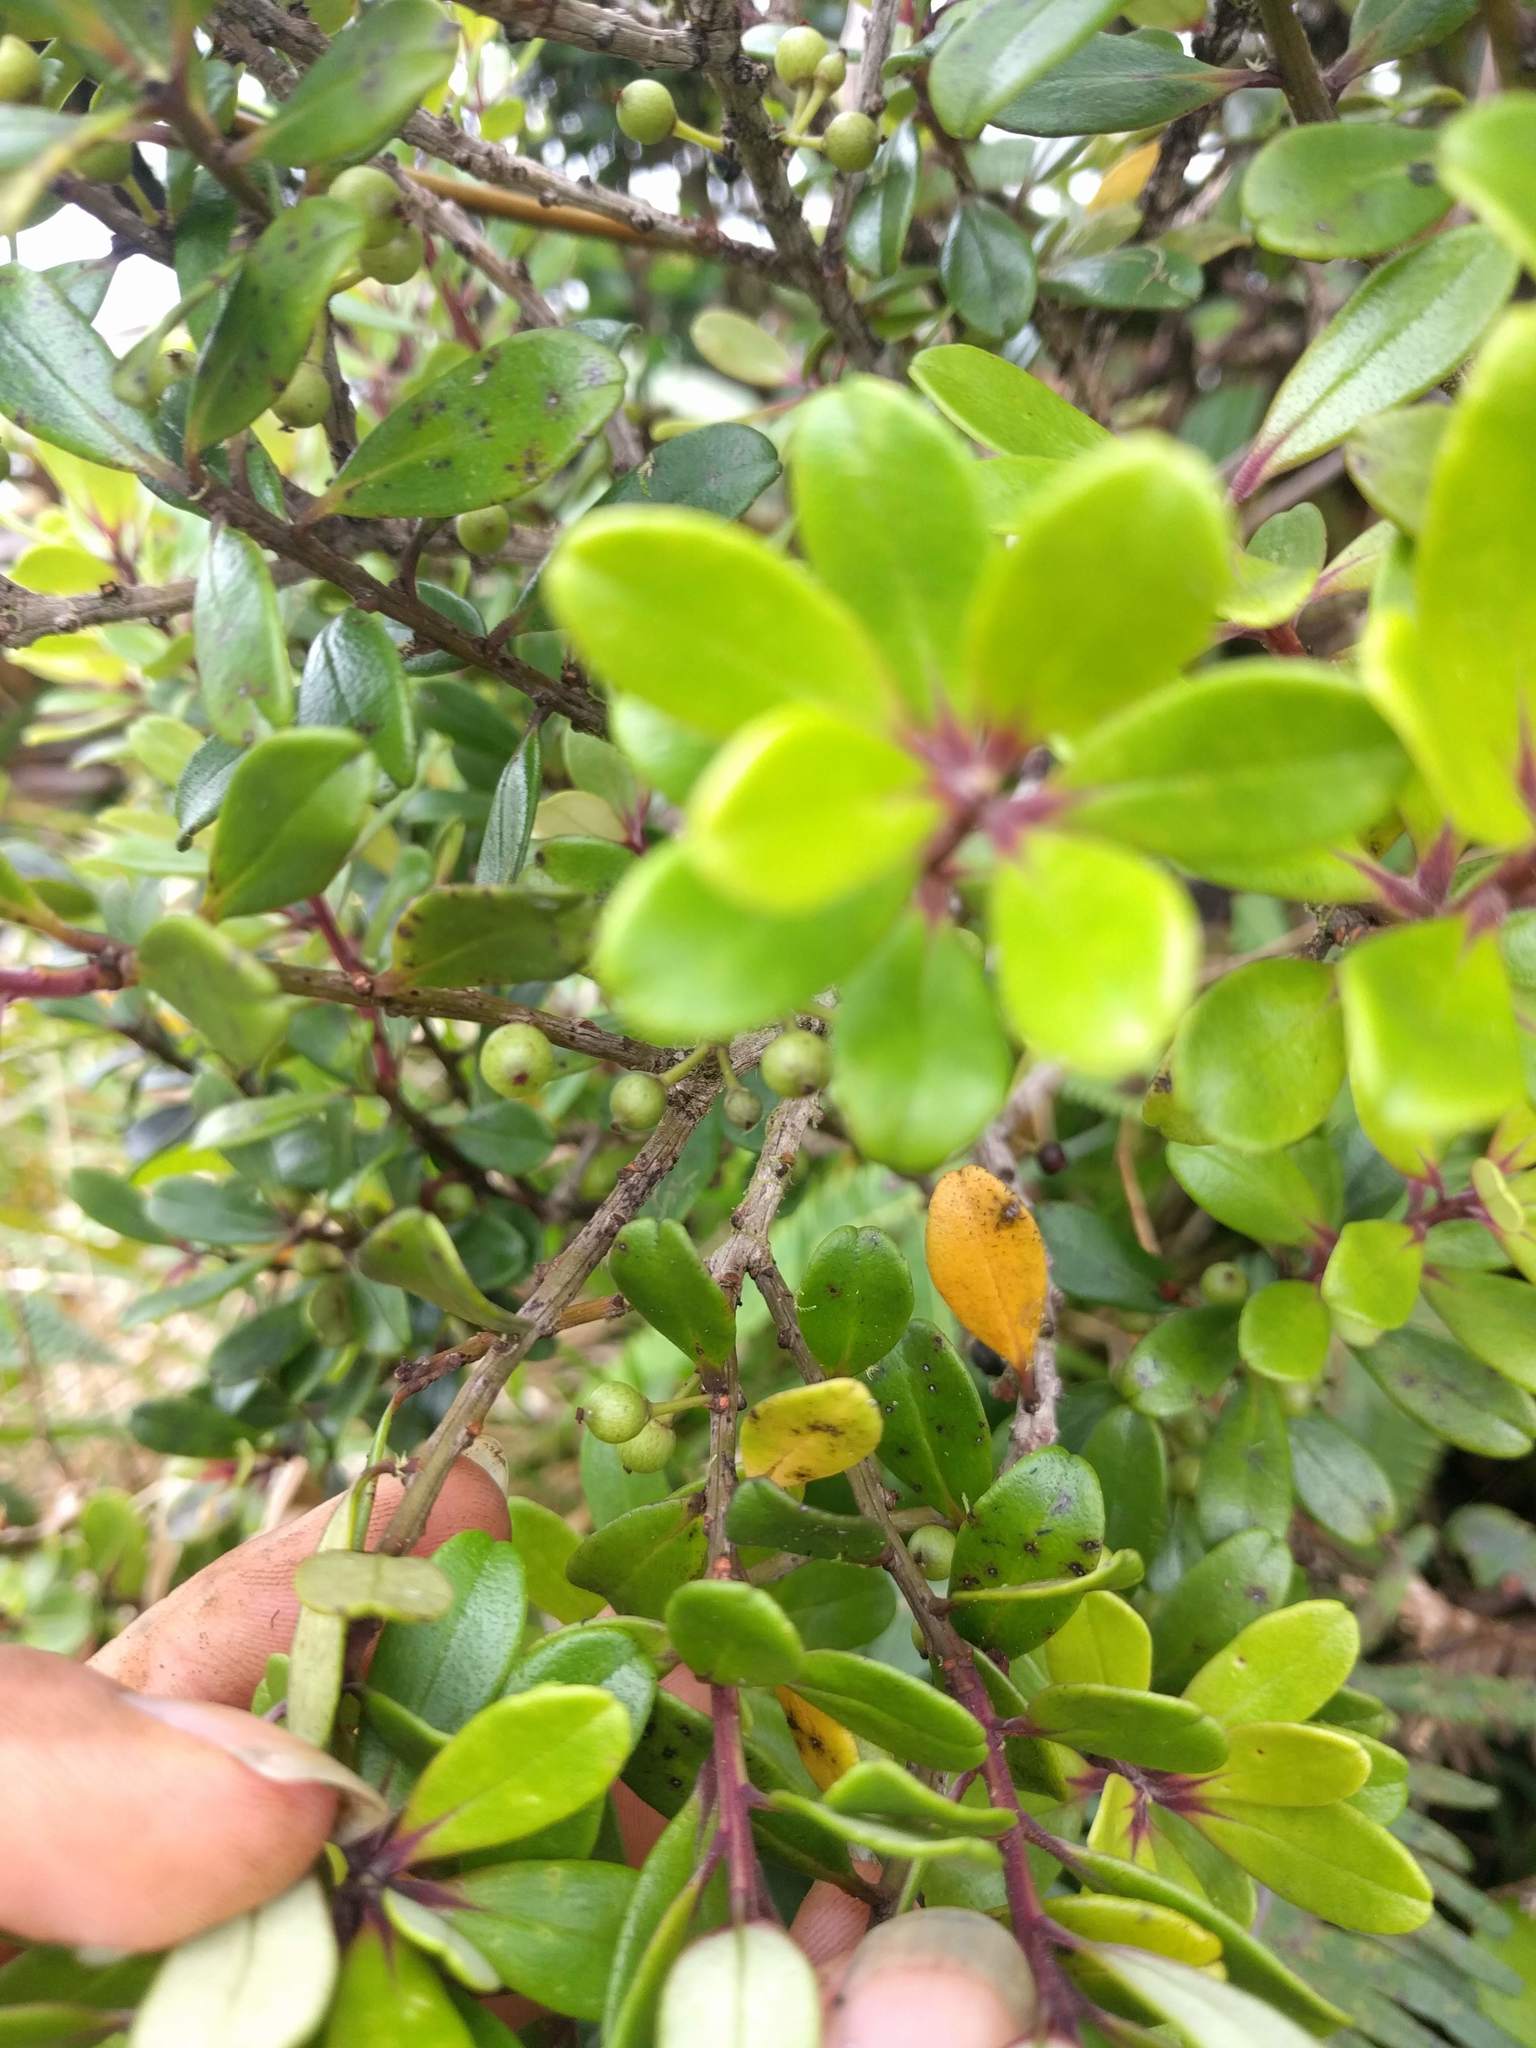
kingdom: Plantae
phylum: Tracheophyta
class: Magnoliopsida
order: Ericales
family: Primulaceae
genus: Myrsine
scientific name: Myrsine sandwicensis
